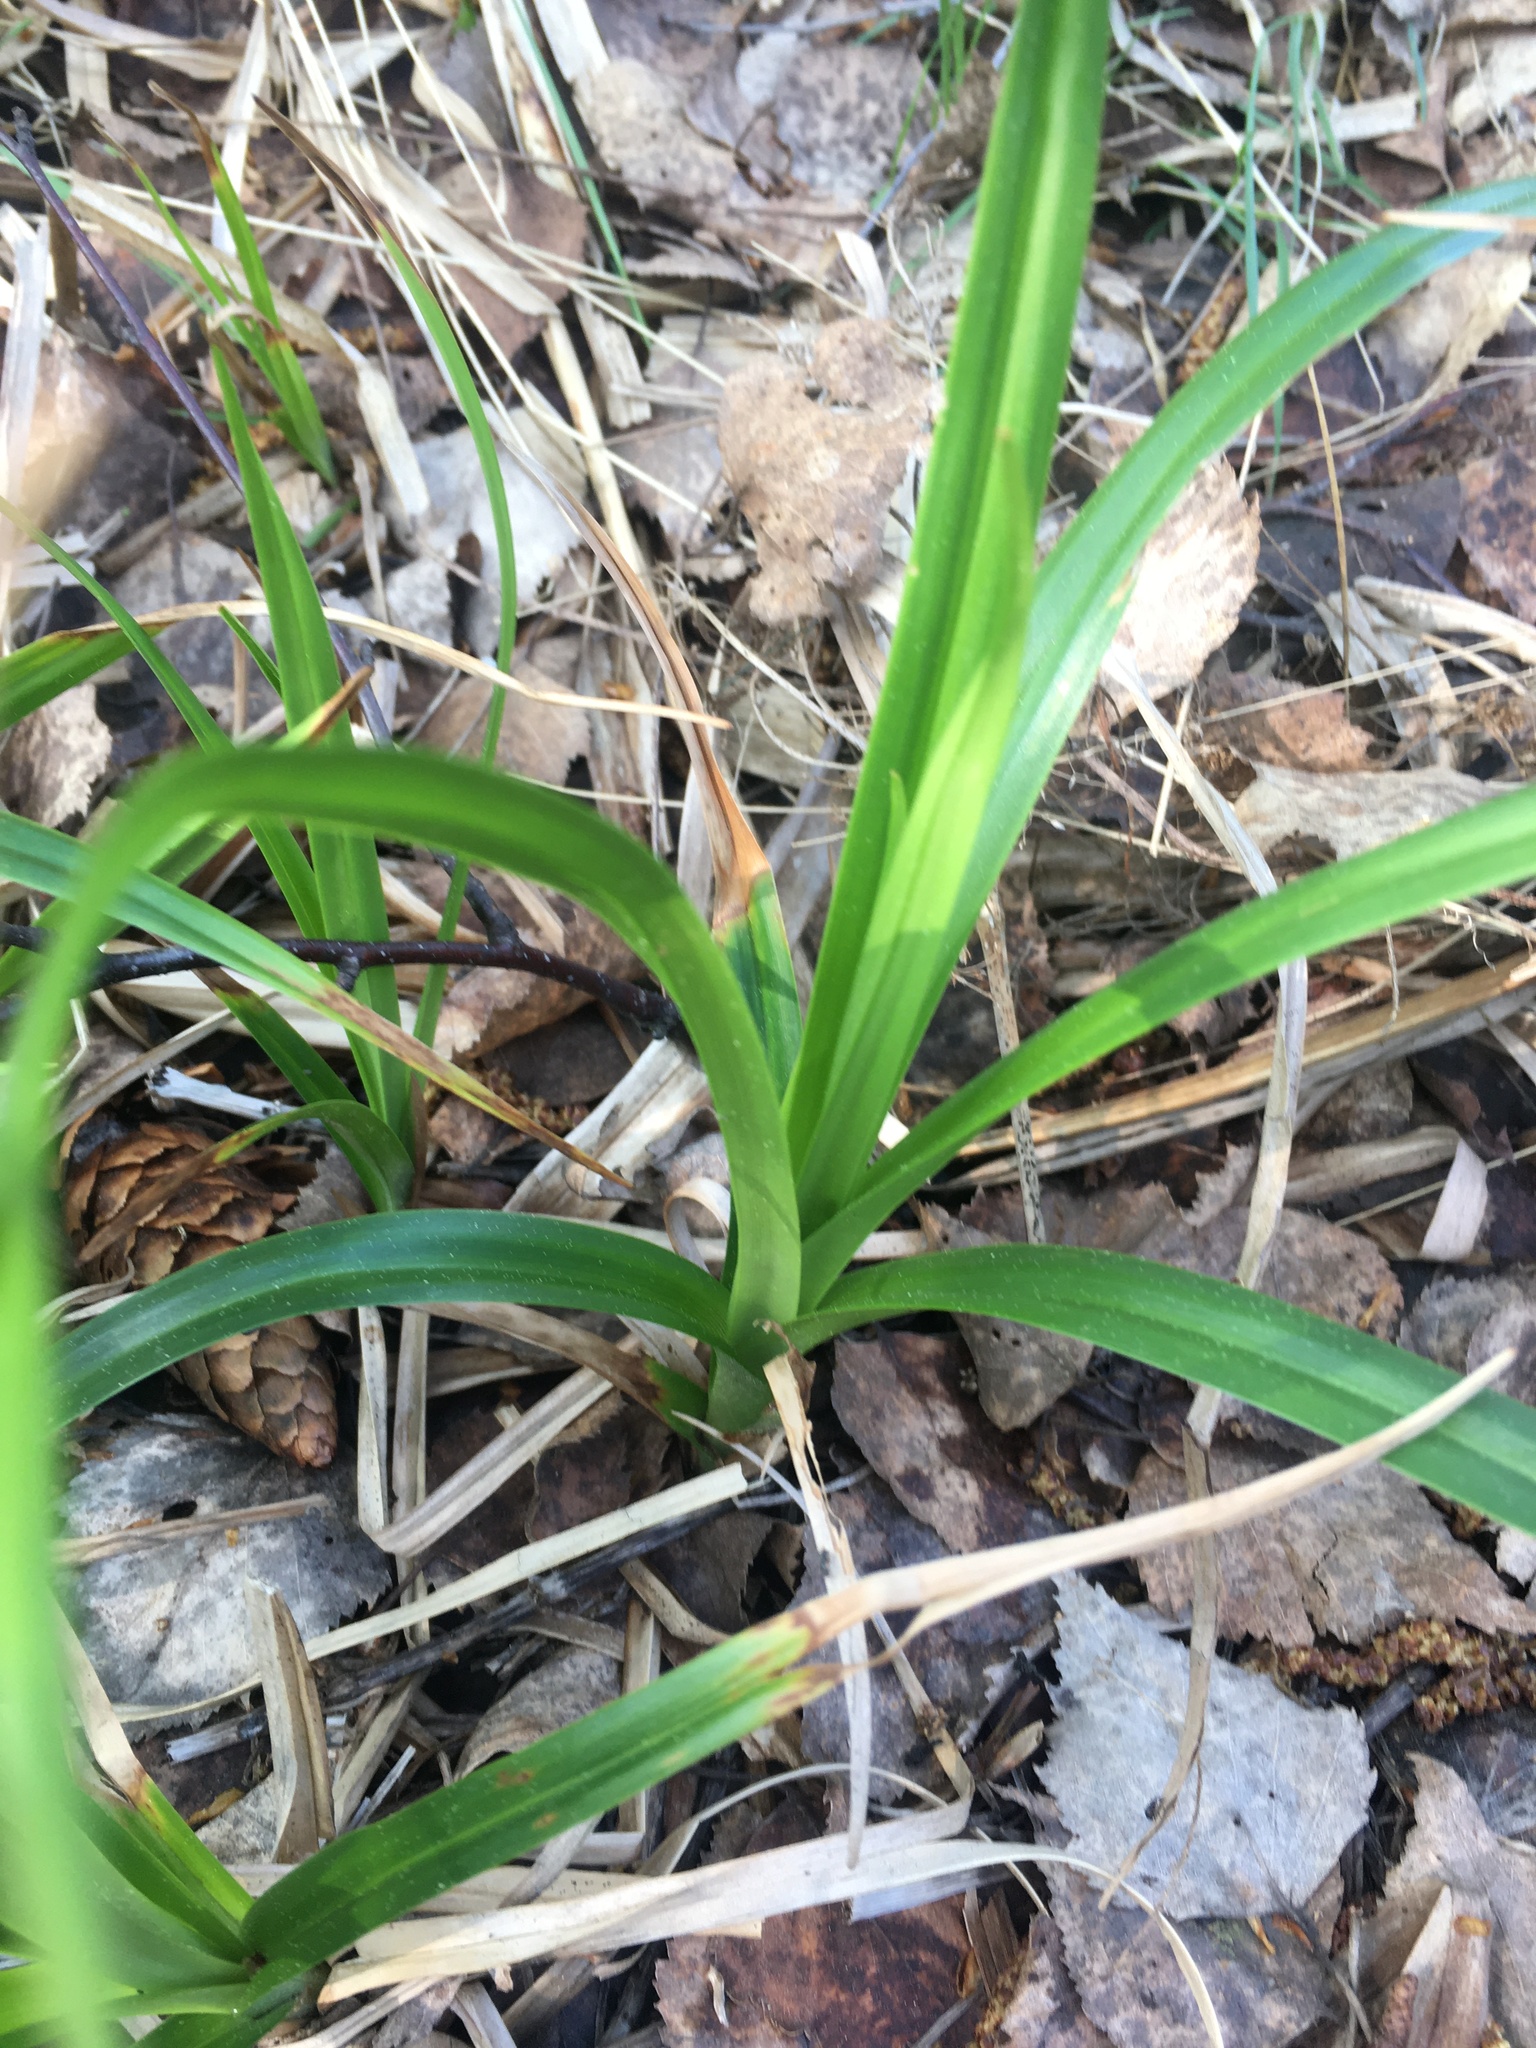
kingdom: Plantae
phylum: Tracheophyta
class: Liliopsida
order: Poales
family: Cyperaceae
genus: Scirpus
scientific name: Scirpus sylvaticus
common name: Wood club-rush
